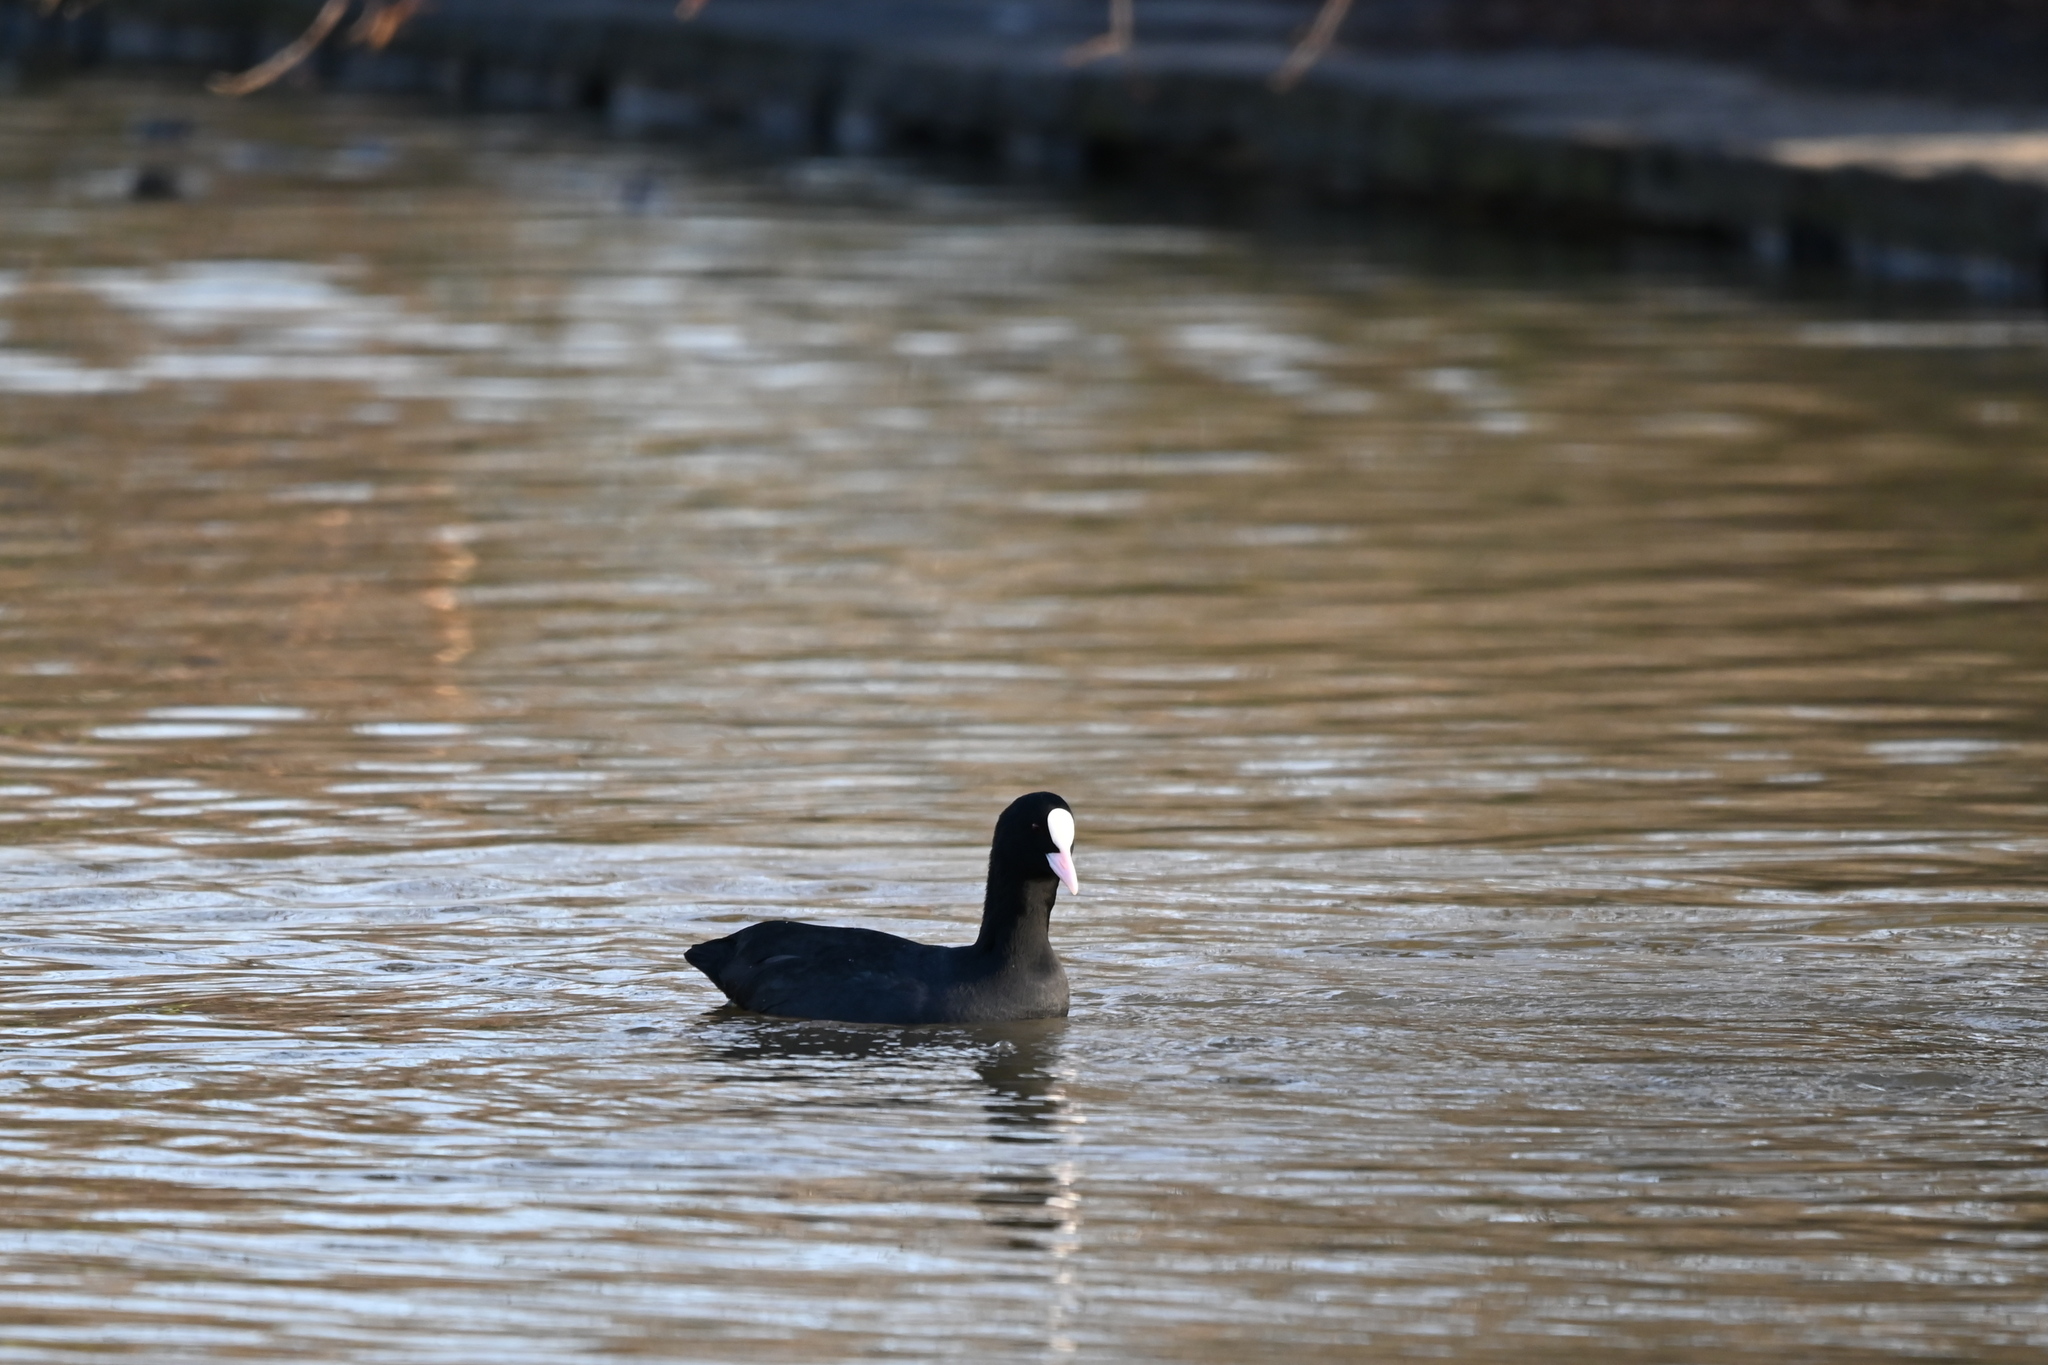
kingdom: Animalia
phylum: Chordata
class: Aves
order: Gruiformes
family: Rallidae
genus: Fulica
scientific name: Fulica atra
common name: Eurasian coot
